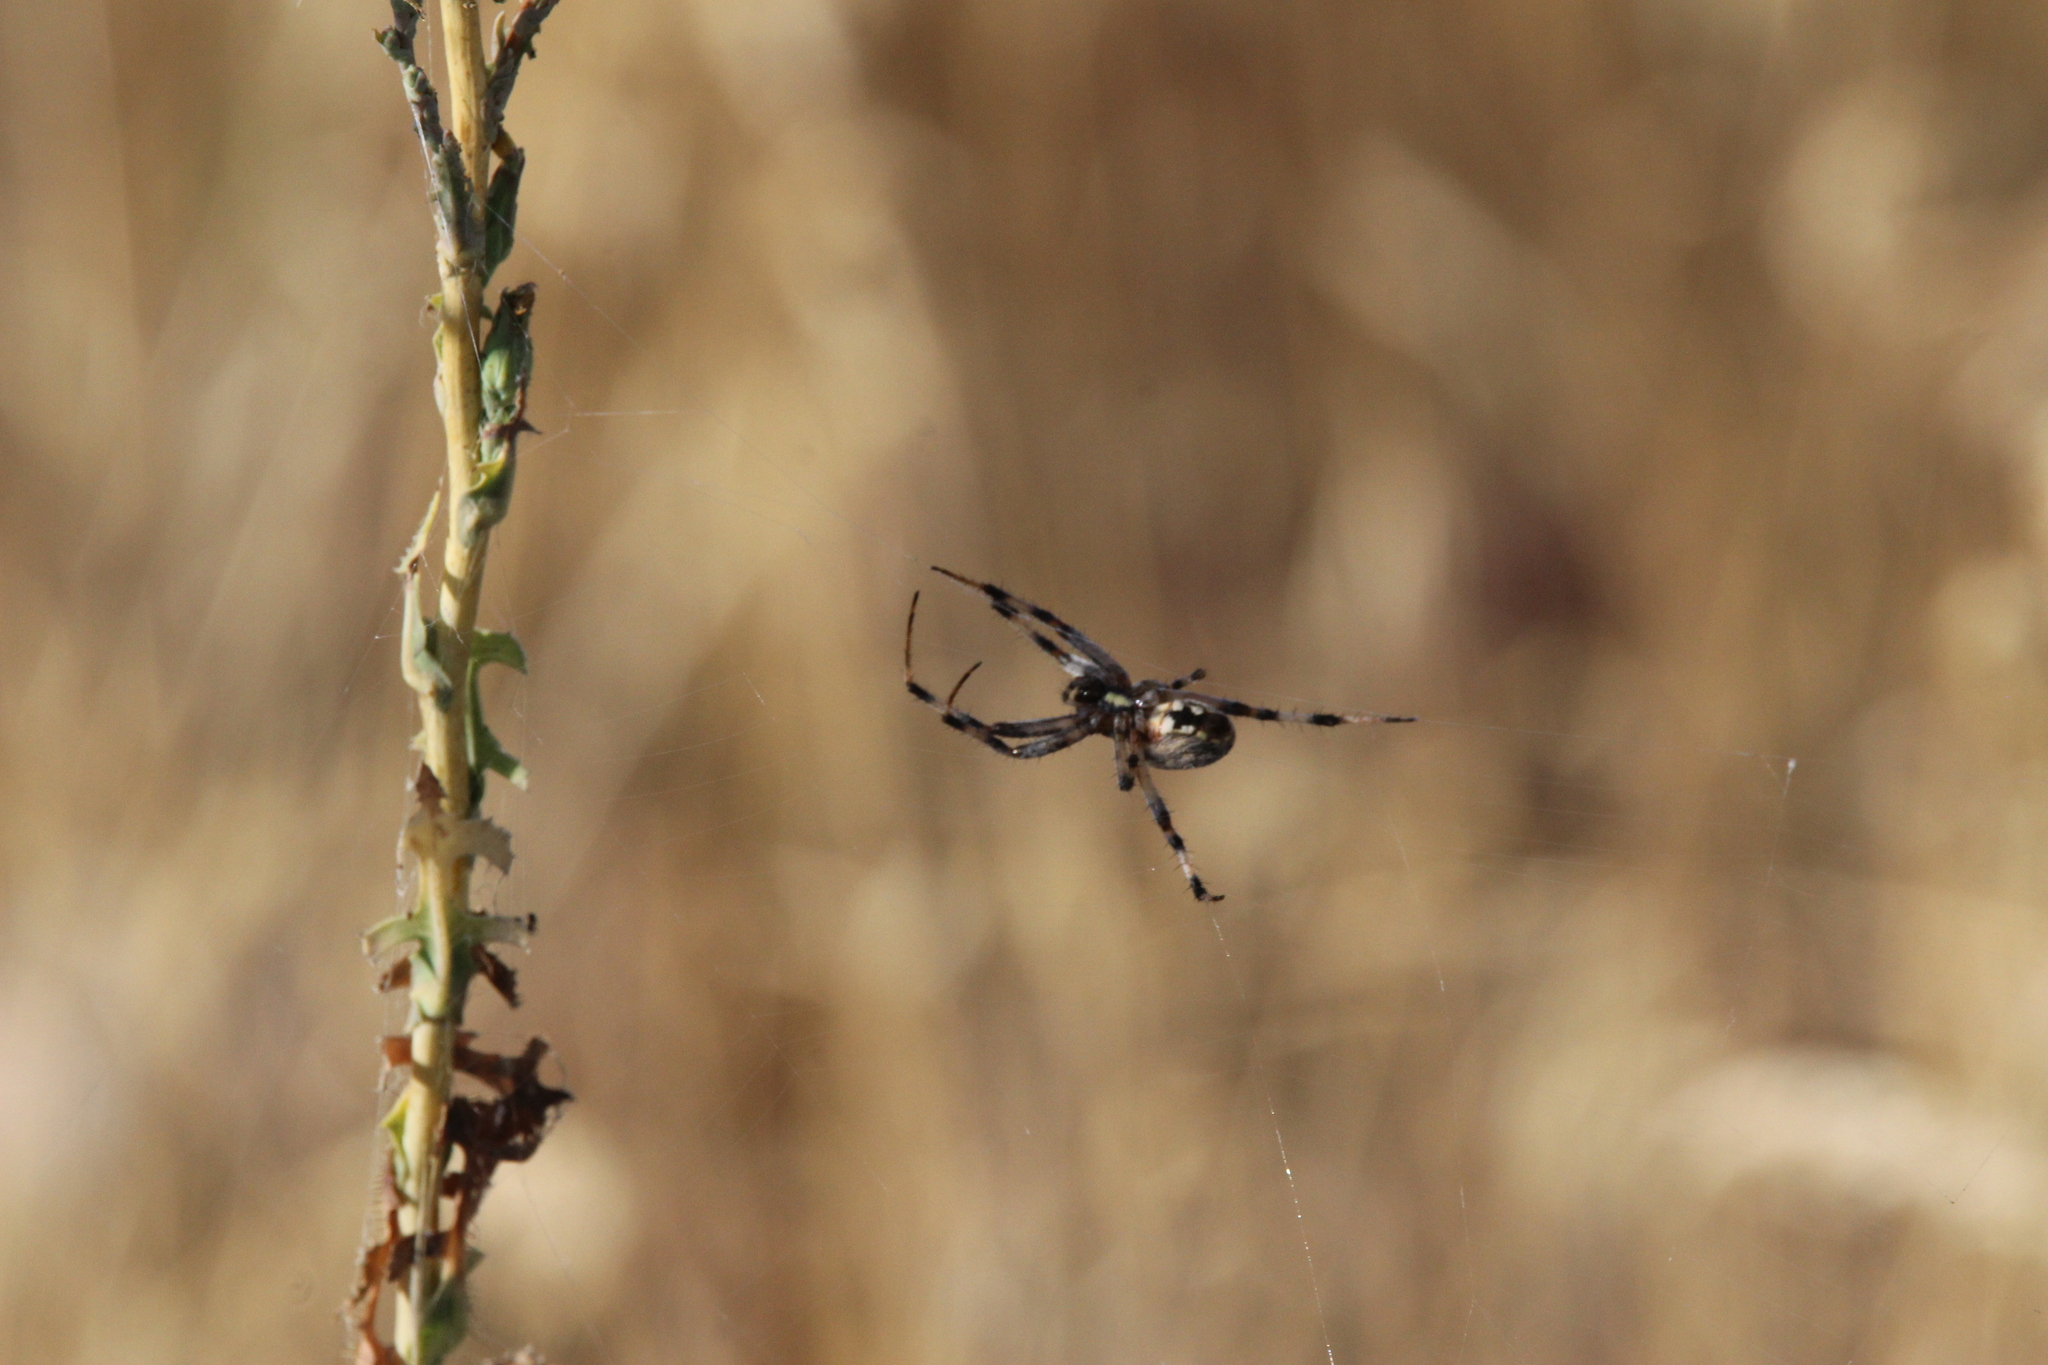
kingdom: Animalia
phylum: Arthropoda
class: Arachnida
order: Araneae
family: Araneidae
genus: Neoscona
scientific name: Neoscona oaxacensis
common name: Orb weavers
